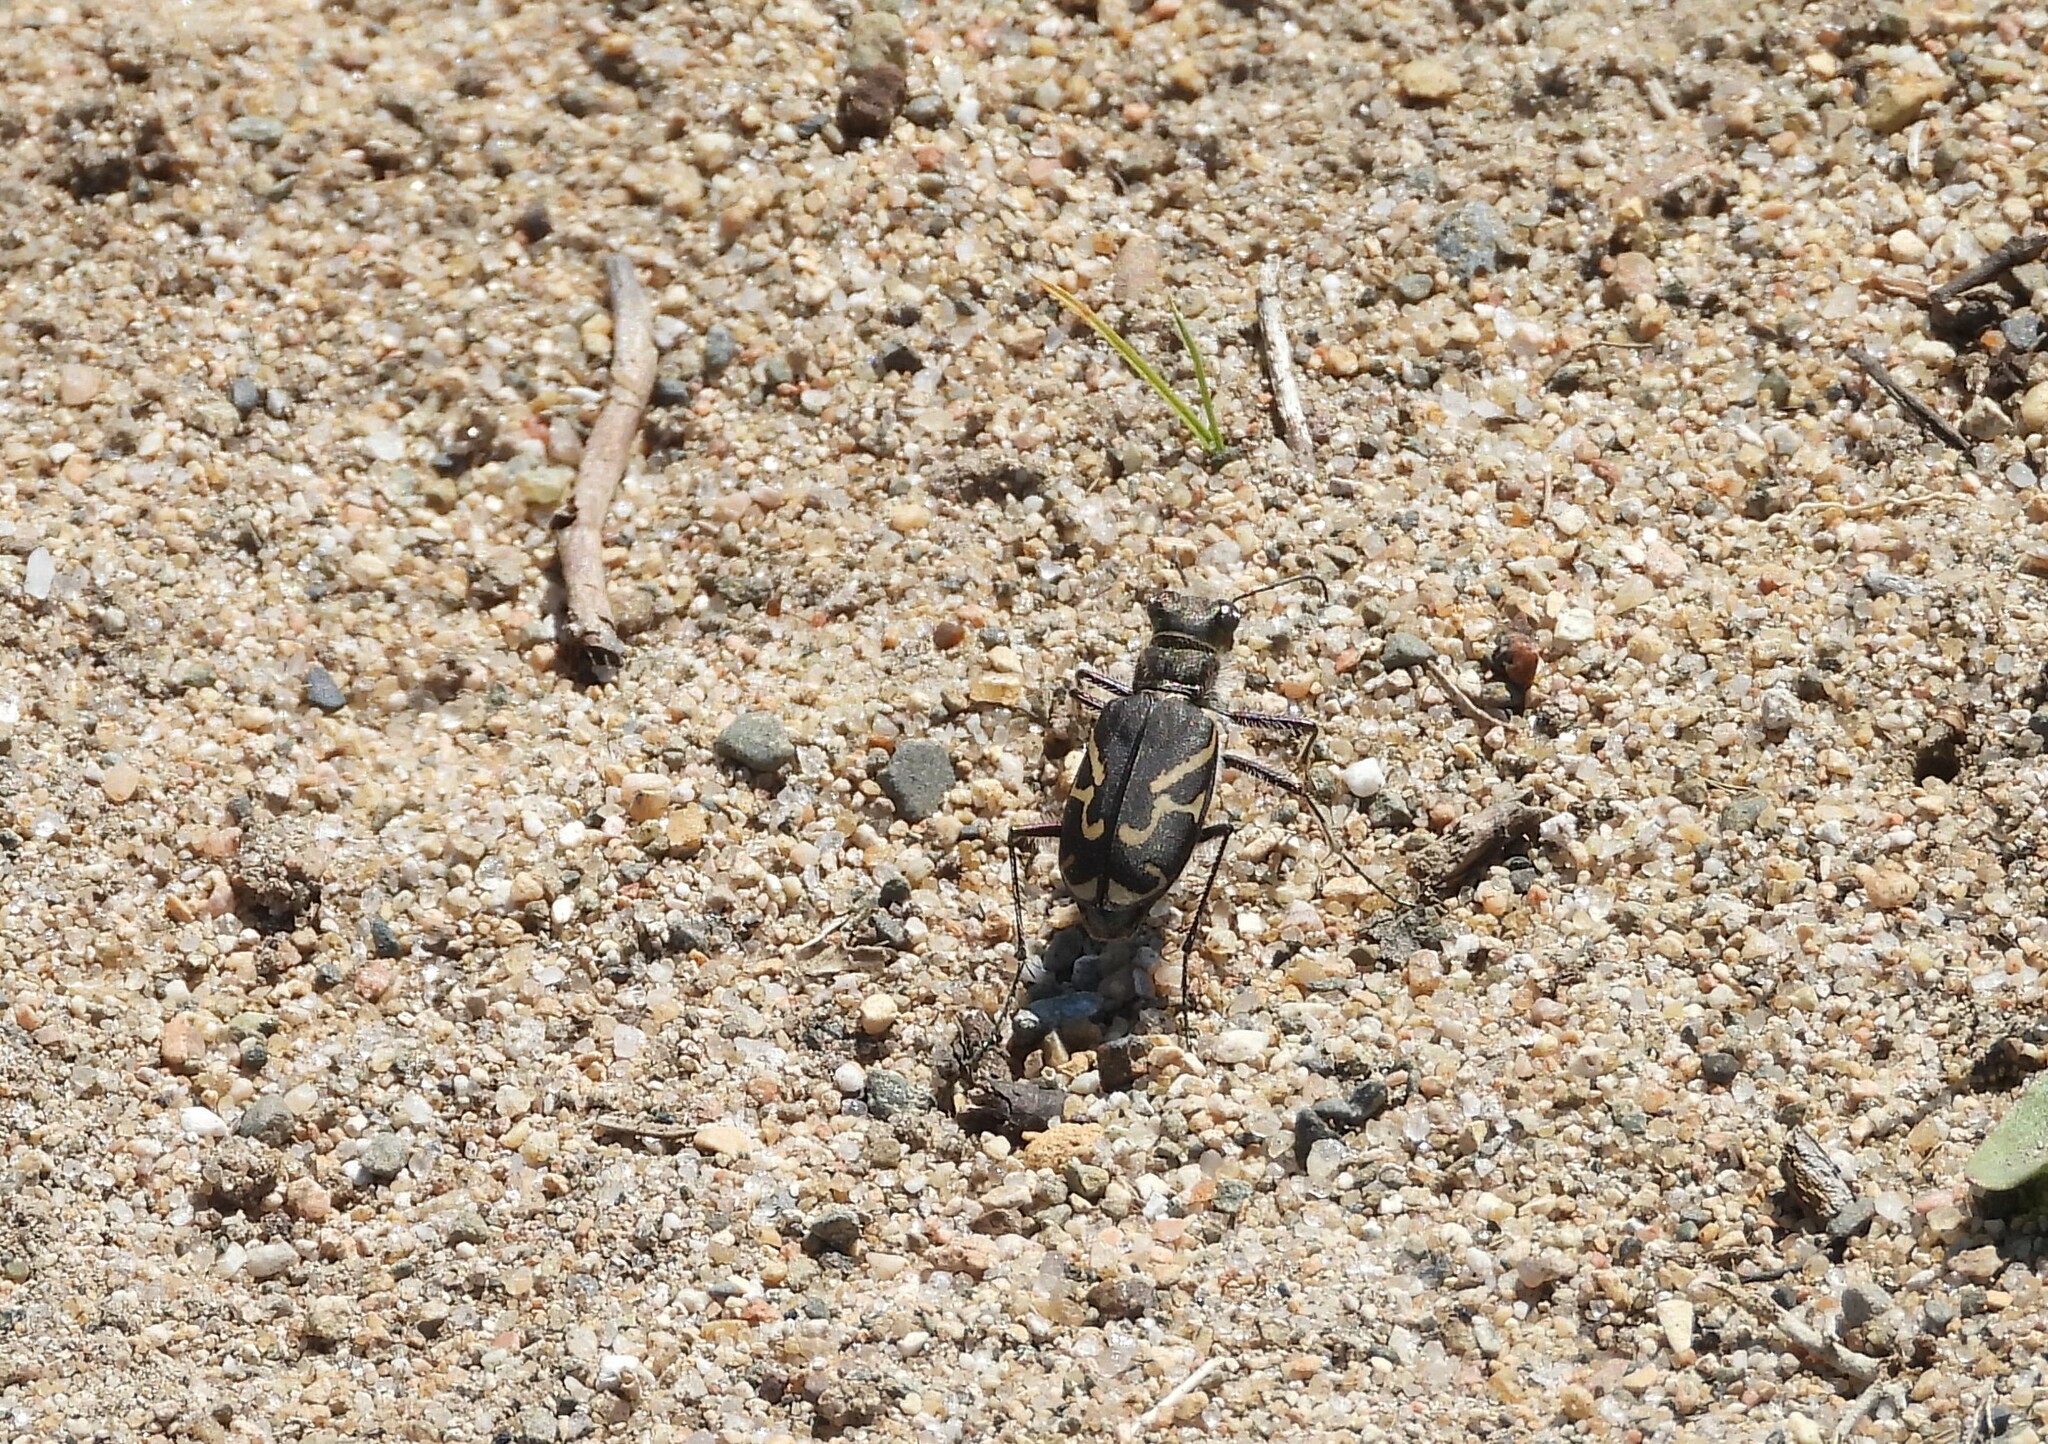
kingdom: Animalia
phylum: Arthropoda
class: Insecta
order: Coleoptera
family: Carabidae
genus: Cicindela
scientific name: Cicindela tranquebarica
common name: Oblique-lined tiger beetle
